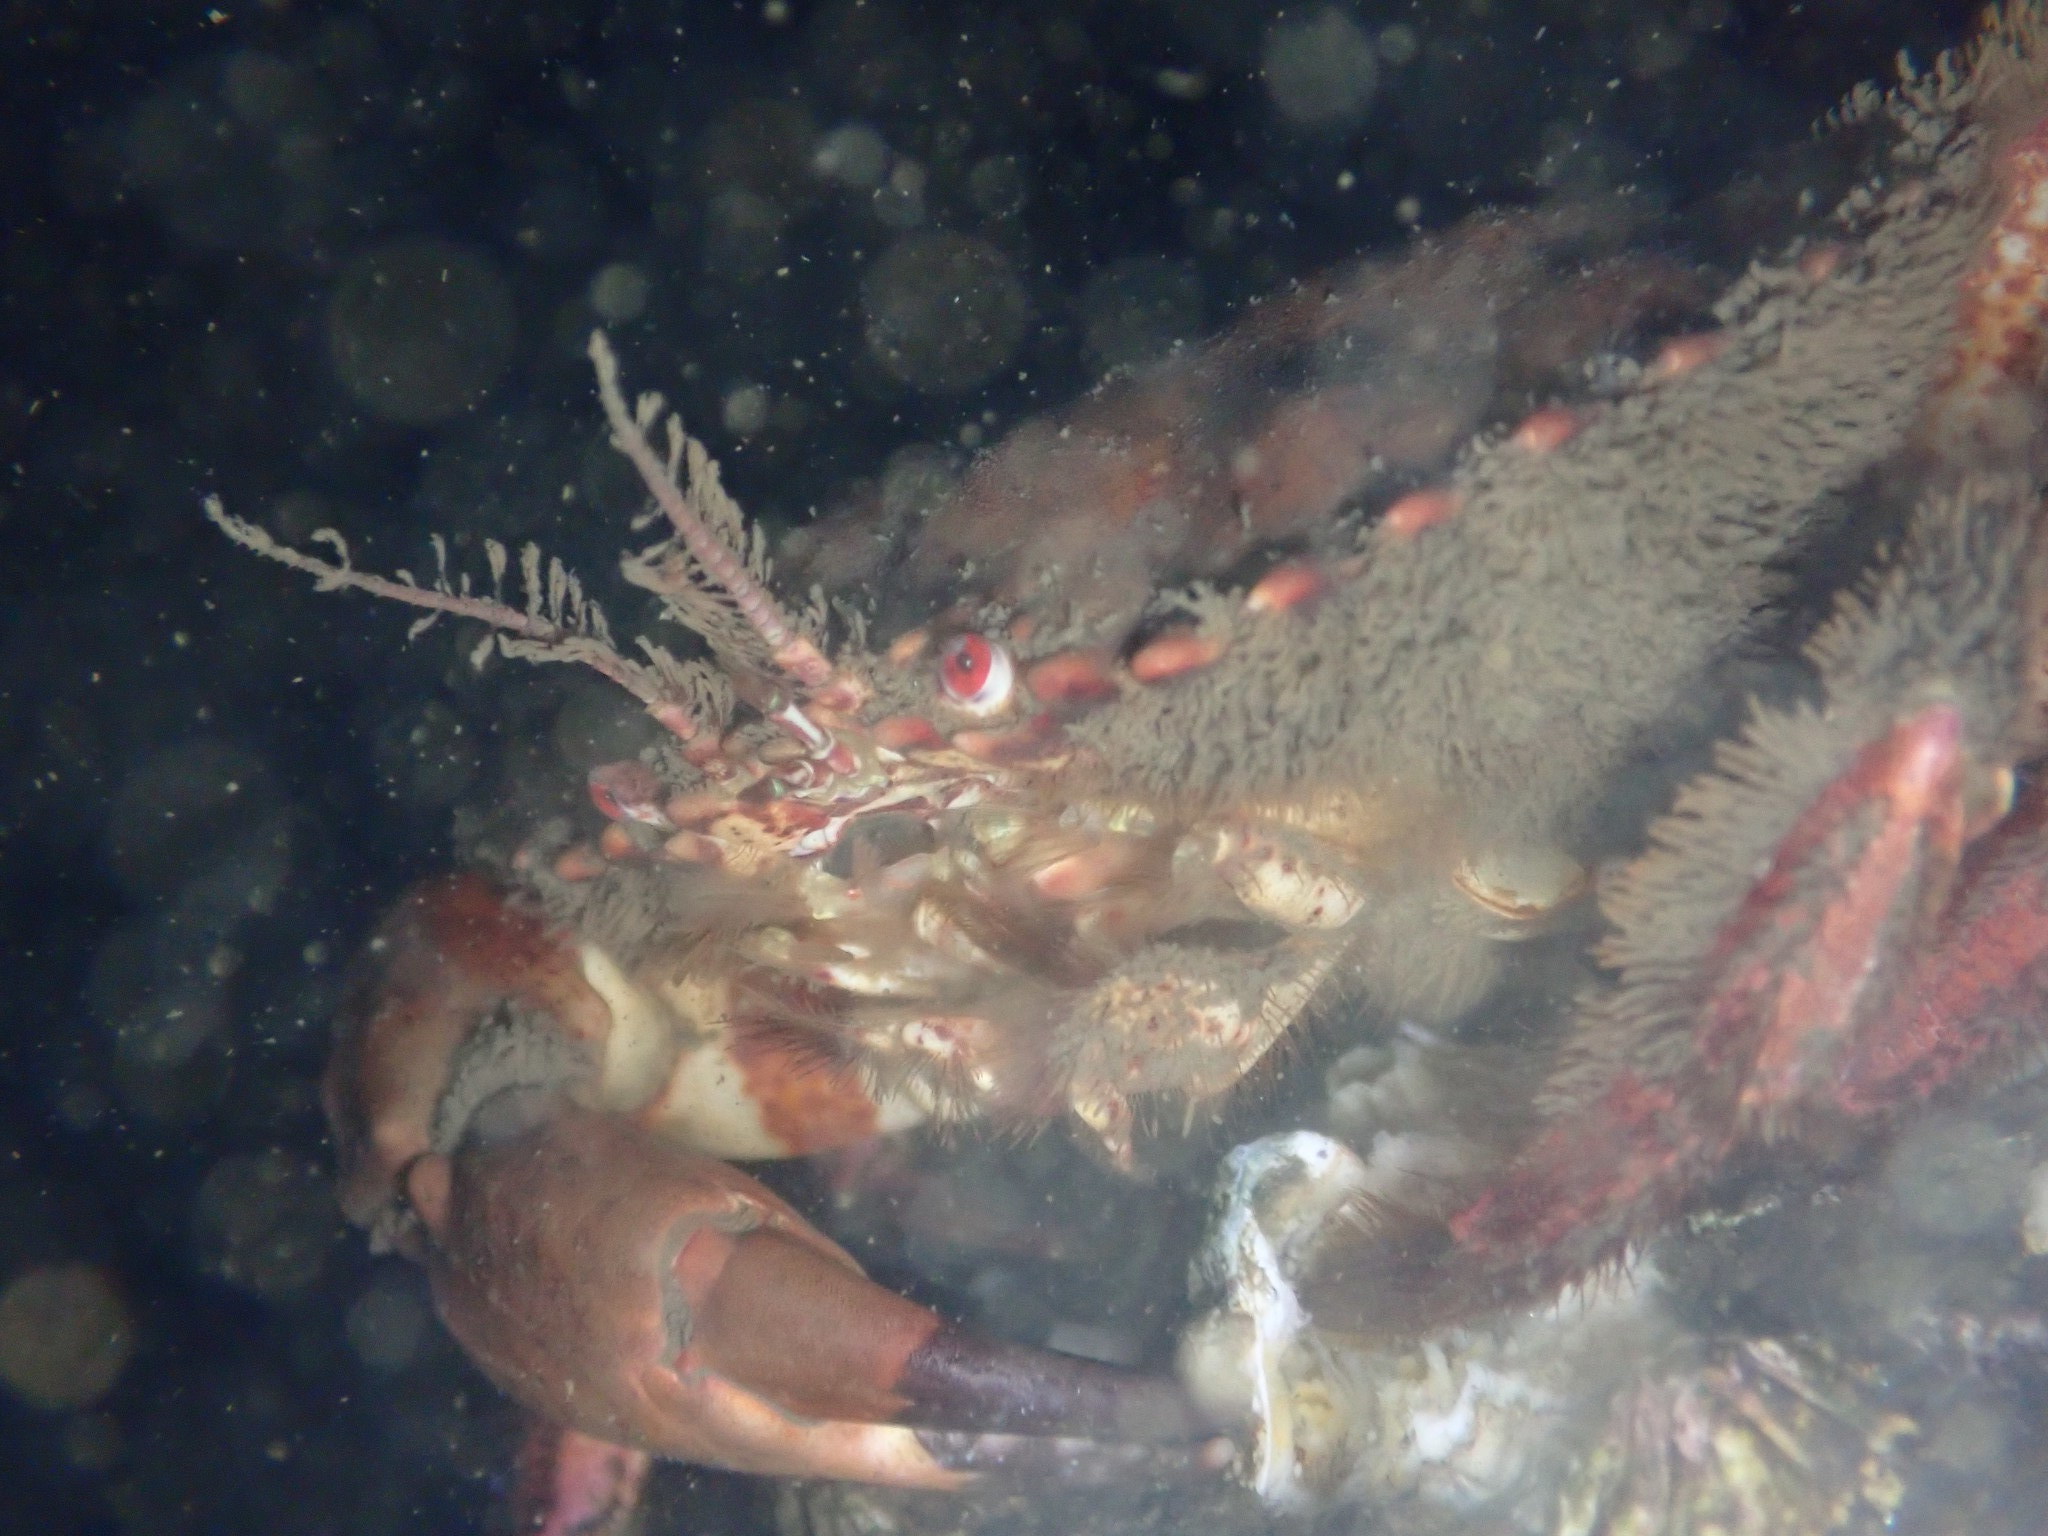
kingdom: Animalia
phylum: Arthropoda
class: Malacostraca
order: Decapoda
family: Cancridae
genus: Romaleon
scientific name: Romaleon antennarium
